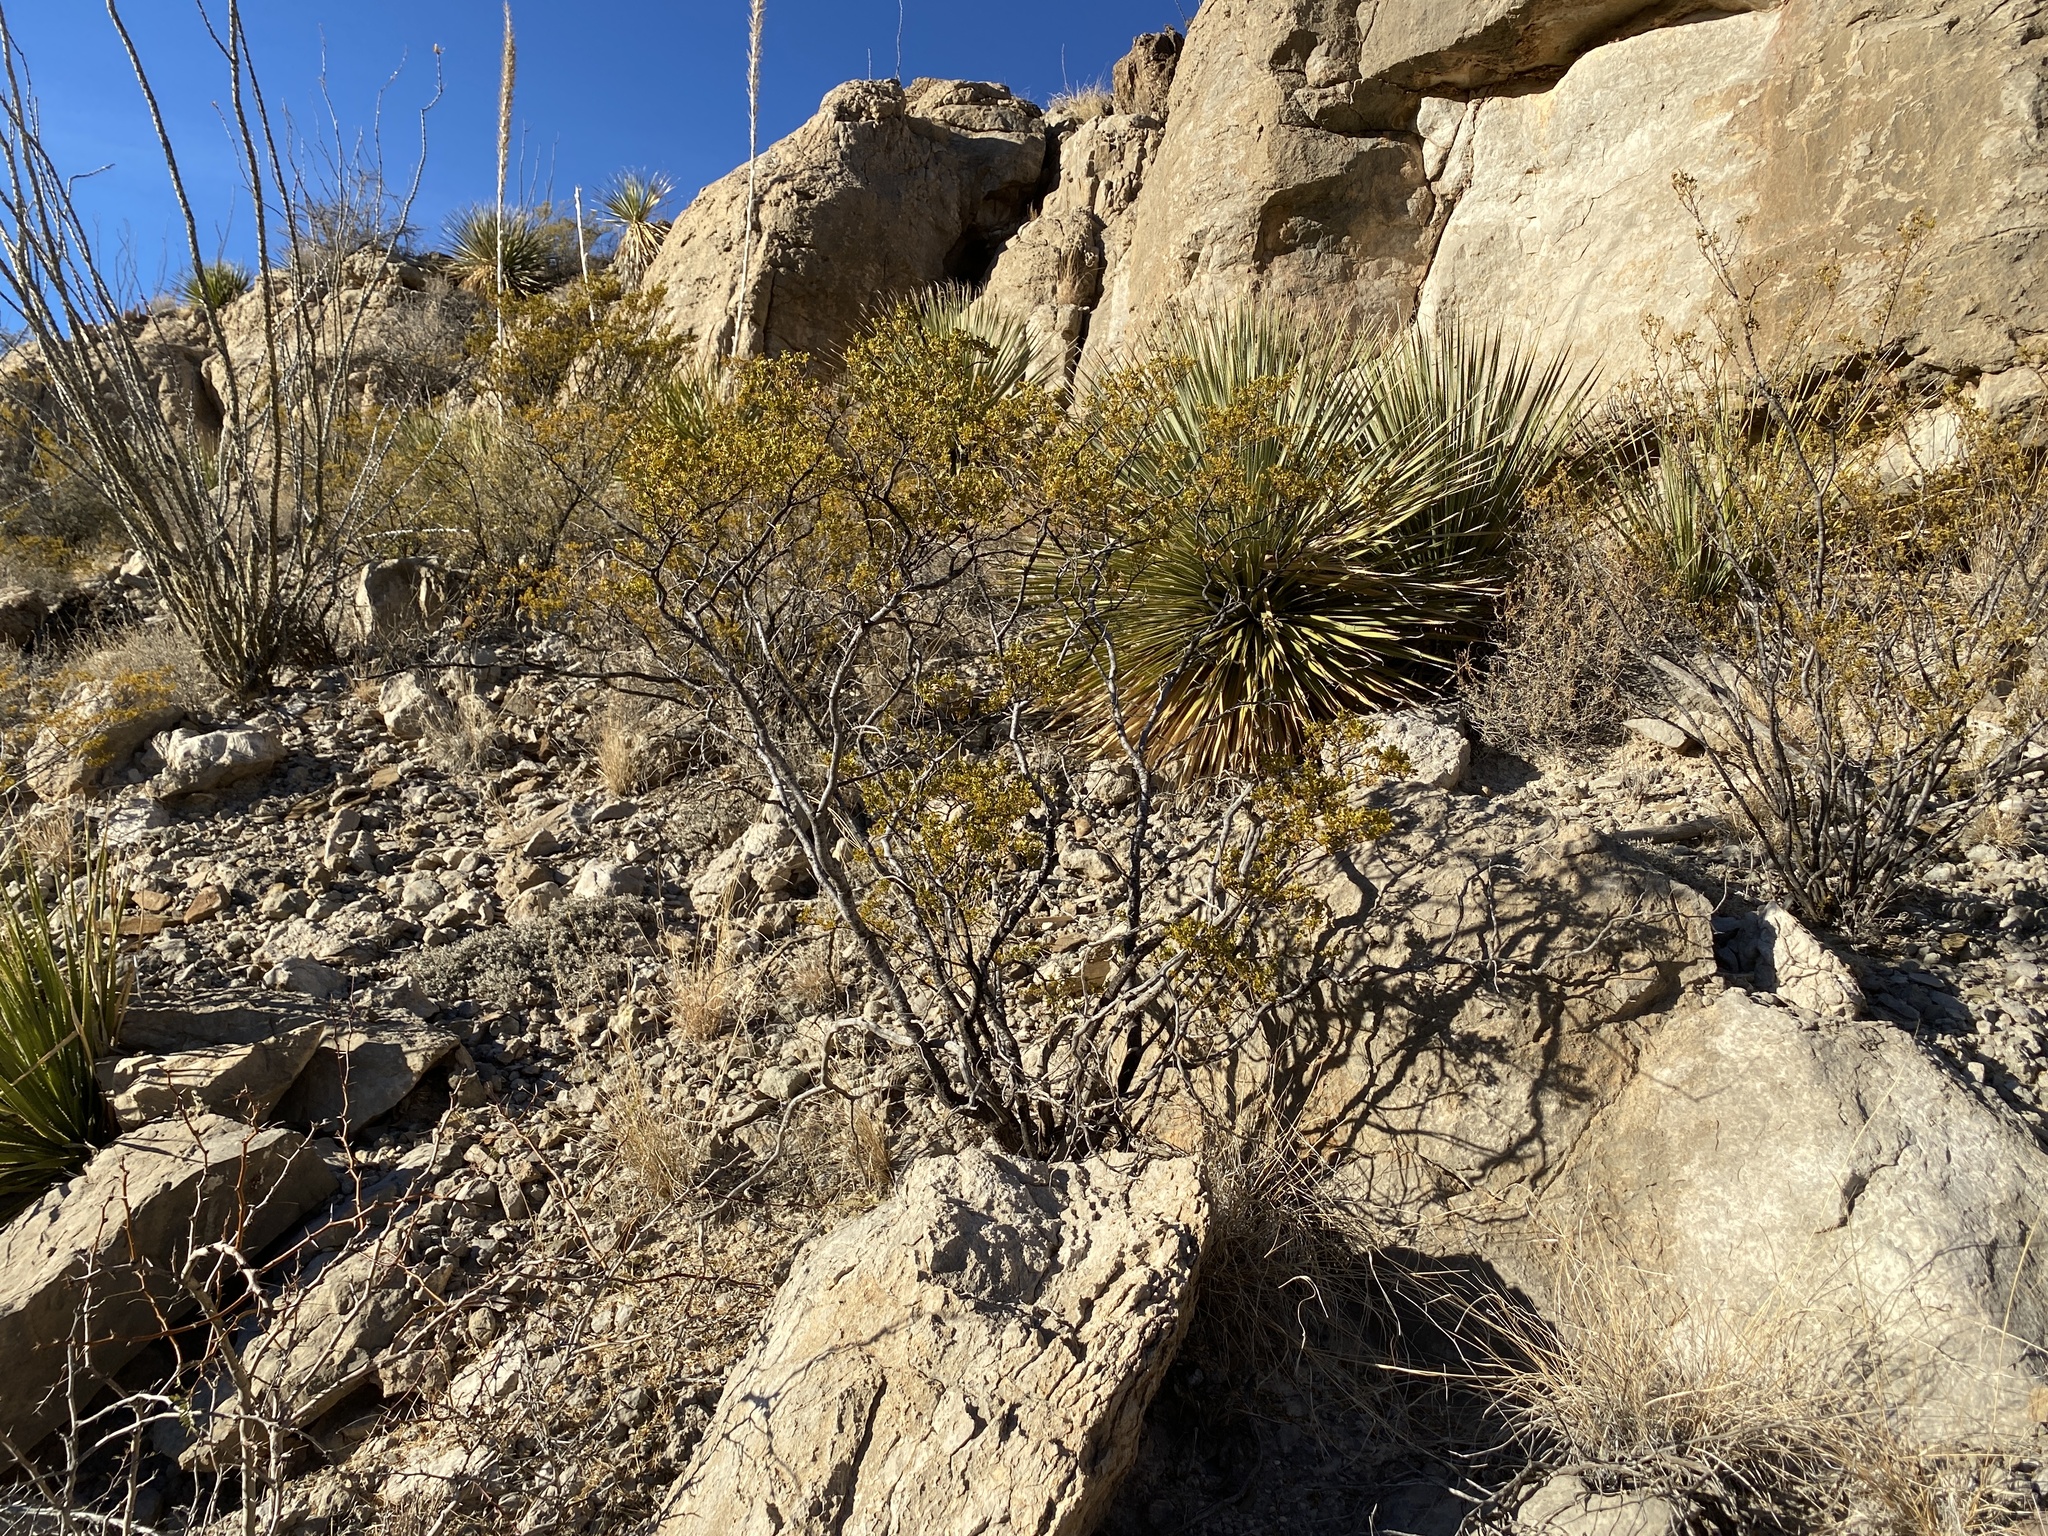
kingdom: Plantae
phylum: Tracheophyta
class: Magnoliopsida
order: Zygophyllales
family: Zygophyllaceae
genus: Larrea
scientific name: Larrea tridentata
